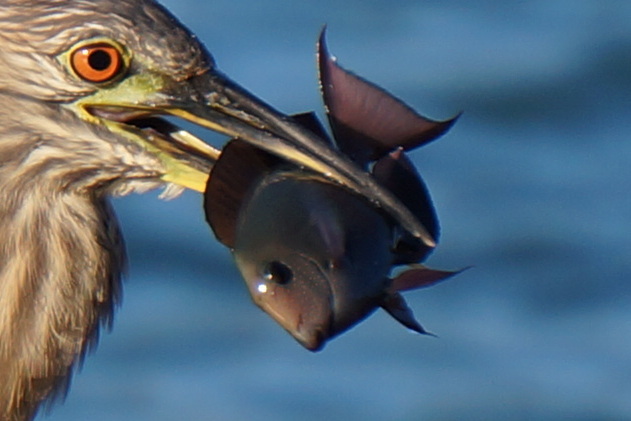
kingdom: Animalia
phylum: Chordata
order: Perciformes
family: Acanthuridae
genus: Acanthurus
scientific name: Acanthurus nigrofuscus
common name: Blackspot surgeonfish
